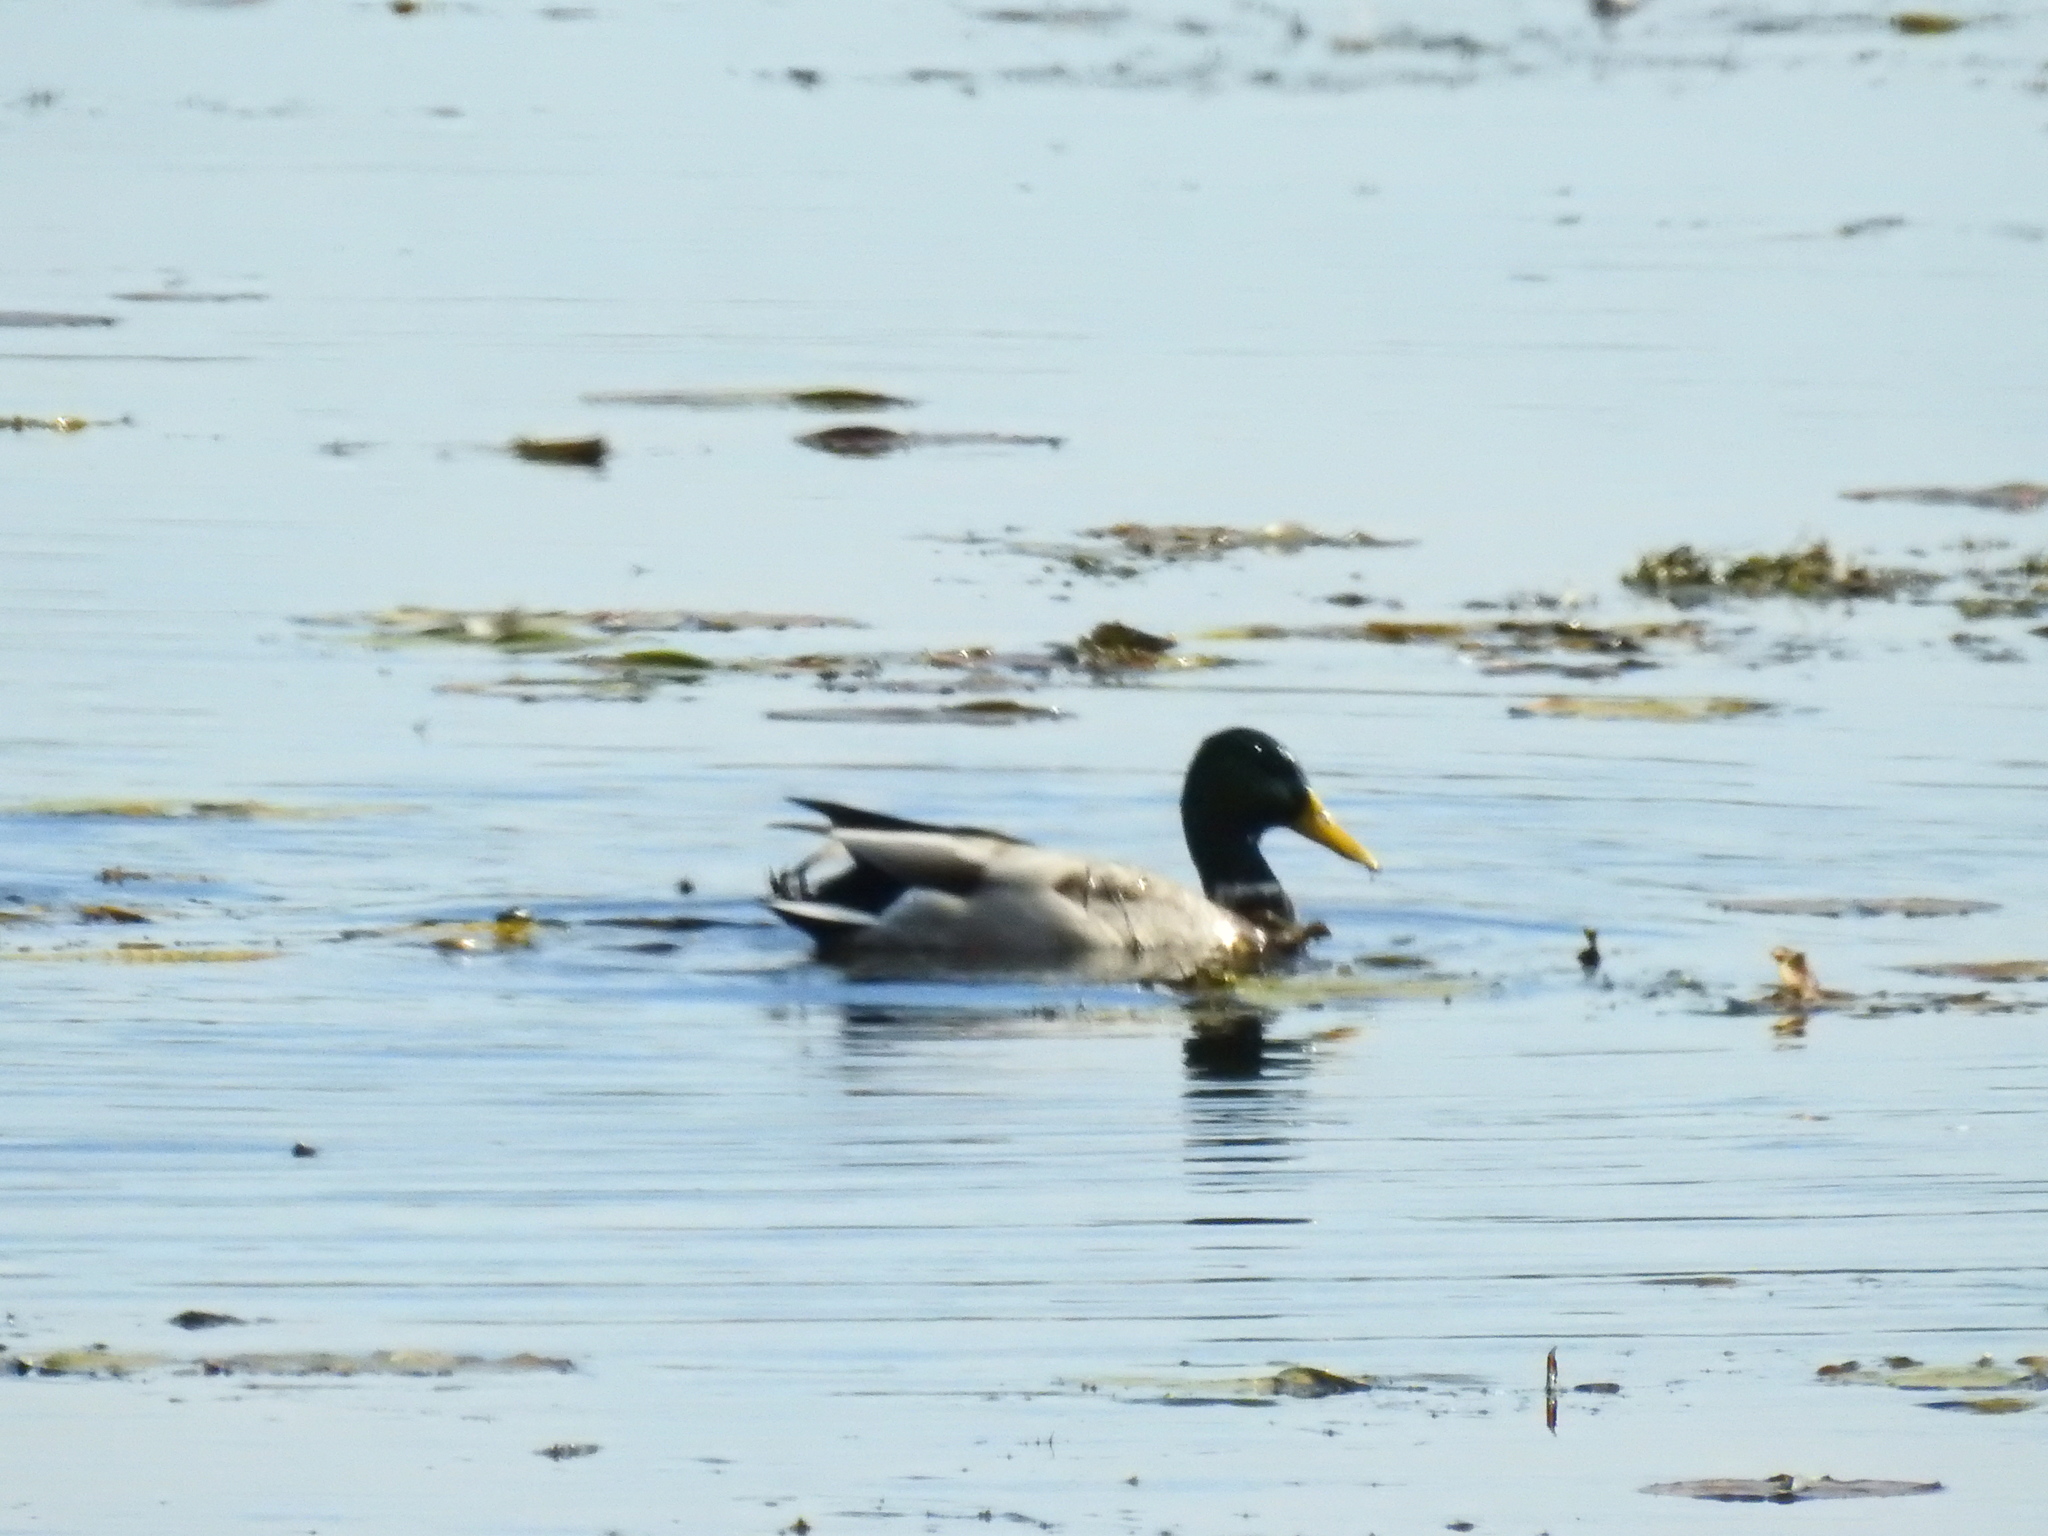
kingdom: Animalia
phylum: Chordata
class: Aves
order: Anseriformes
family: Anatidae
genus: Anas
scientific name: Anas platyrhynchos
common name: Mallard
